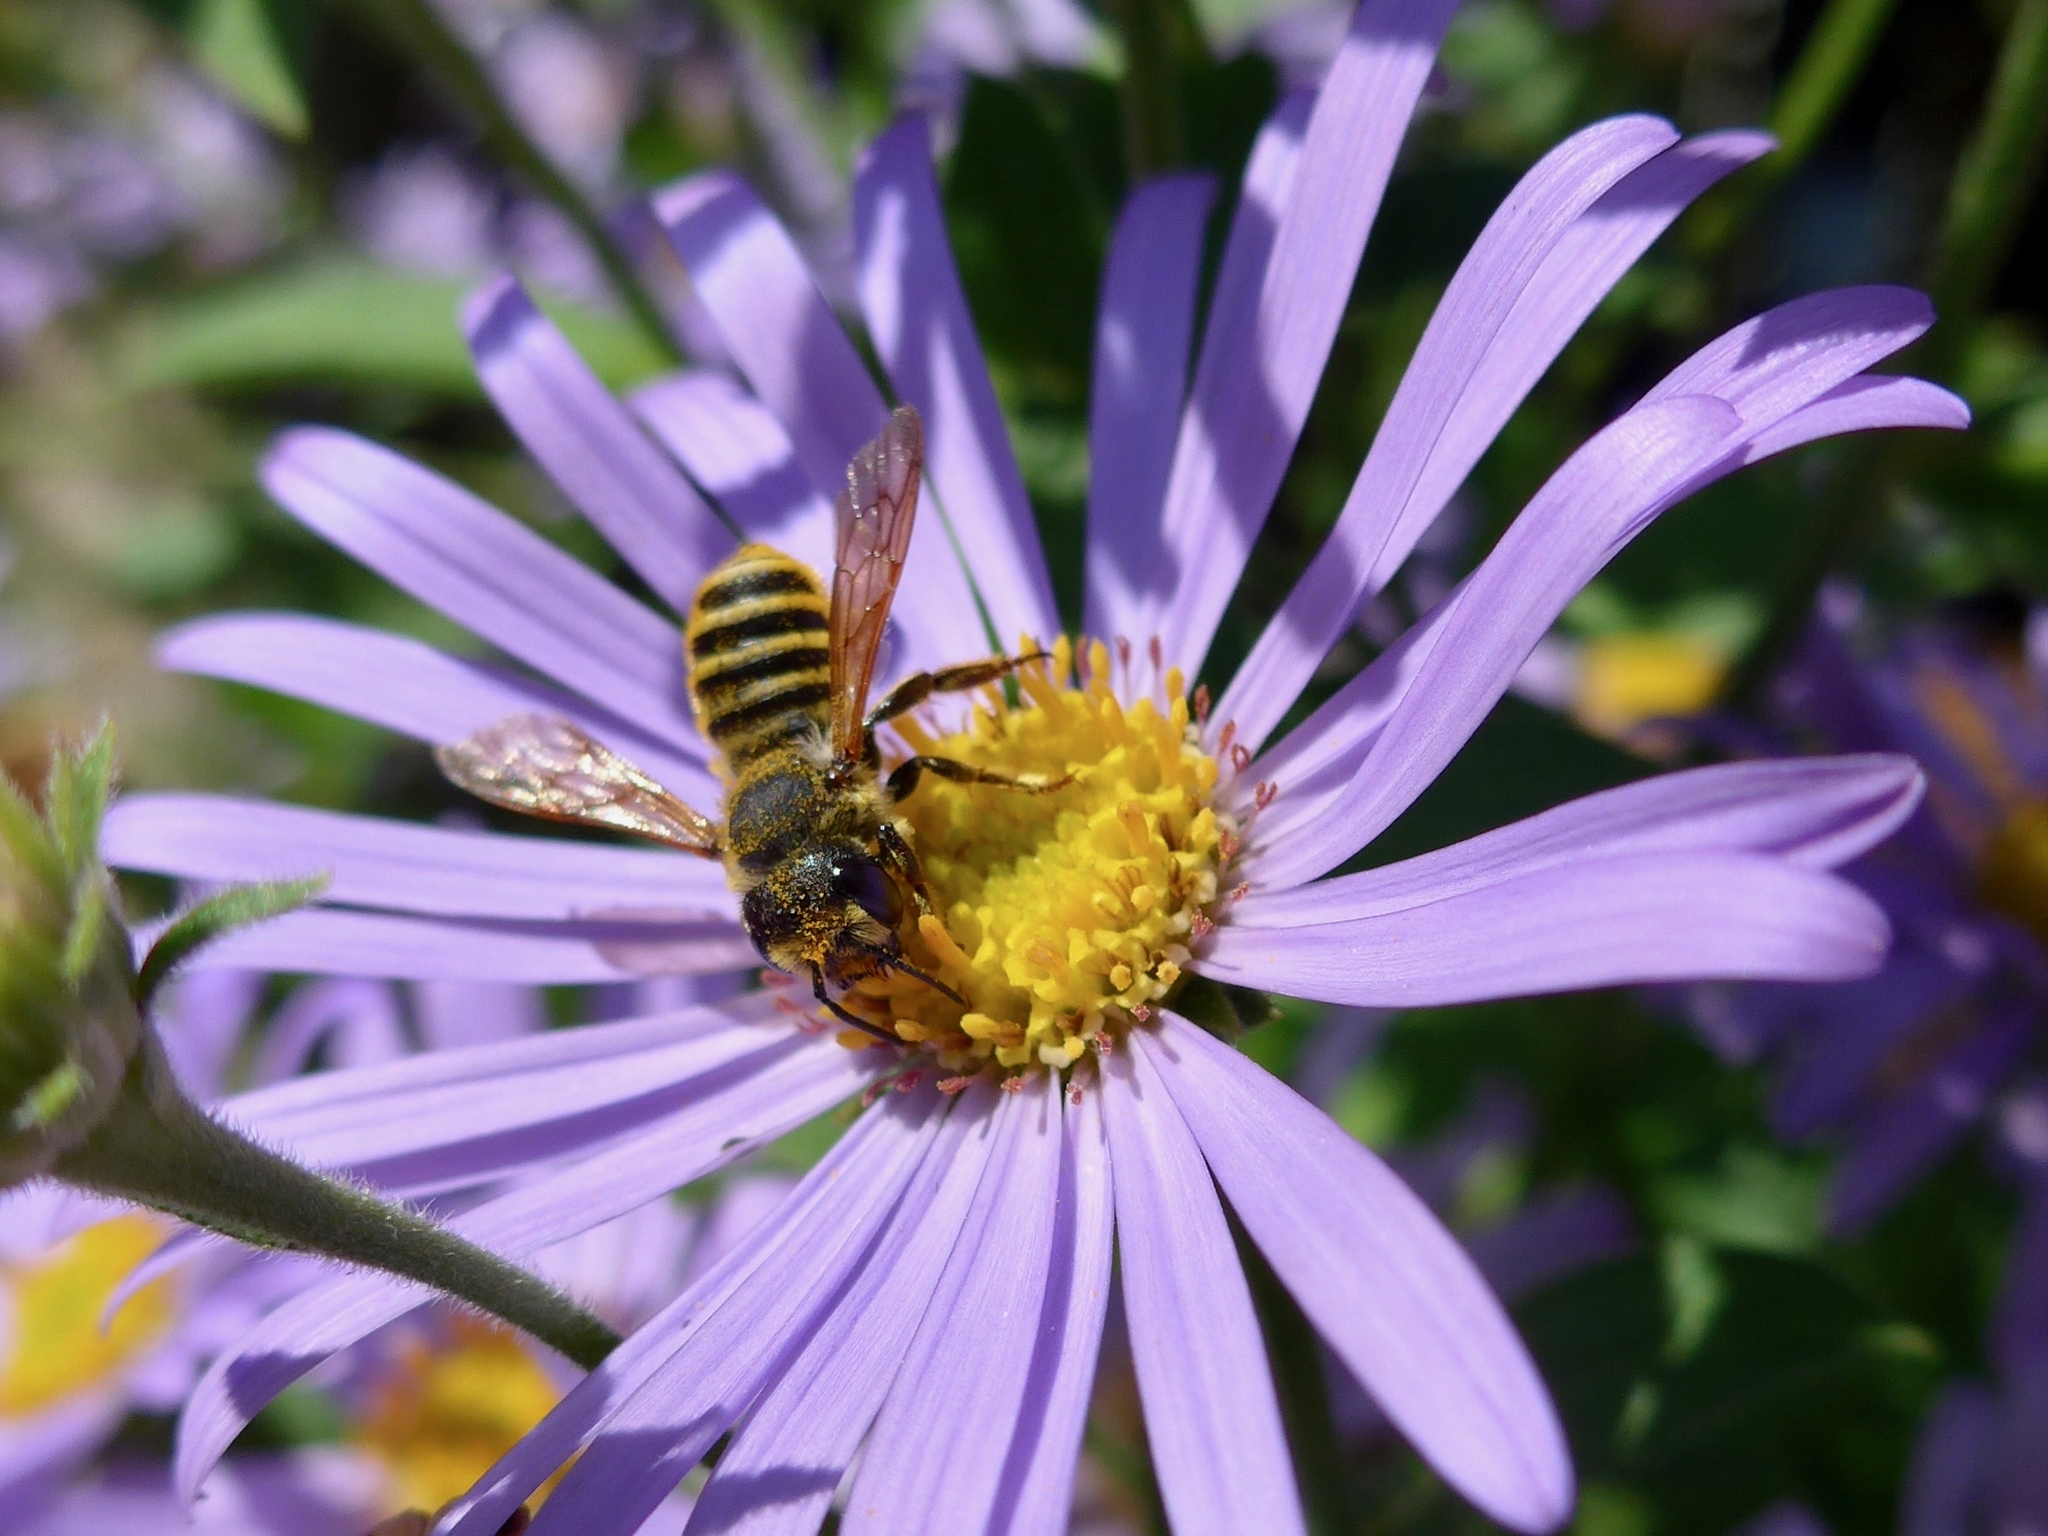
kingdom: Animalia
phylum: Arthropoda
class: Insecta
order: Hymenoptera
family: Megachilidae
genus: Megachile
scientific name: Megachile fidelis
